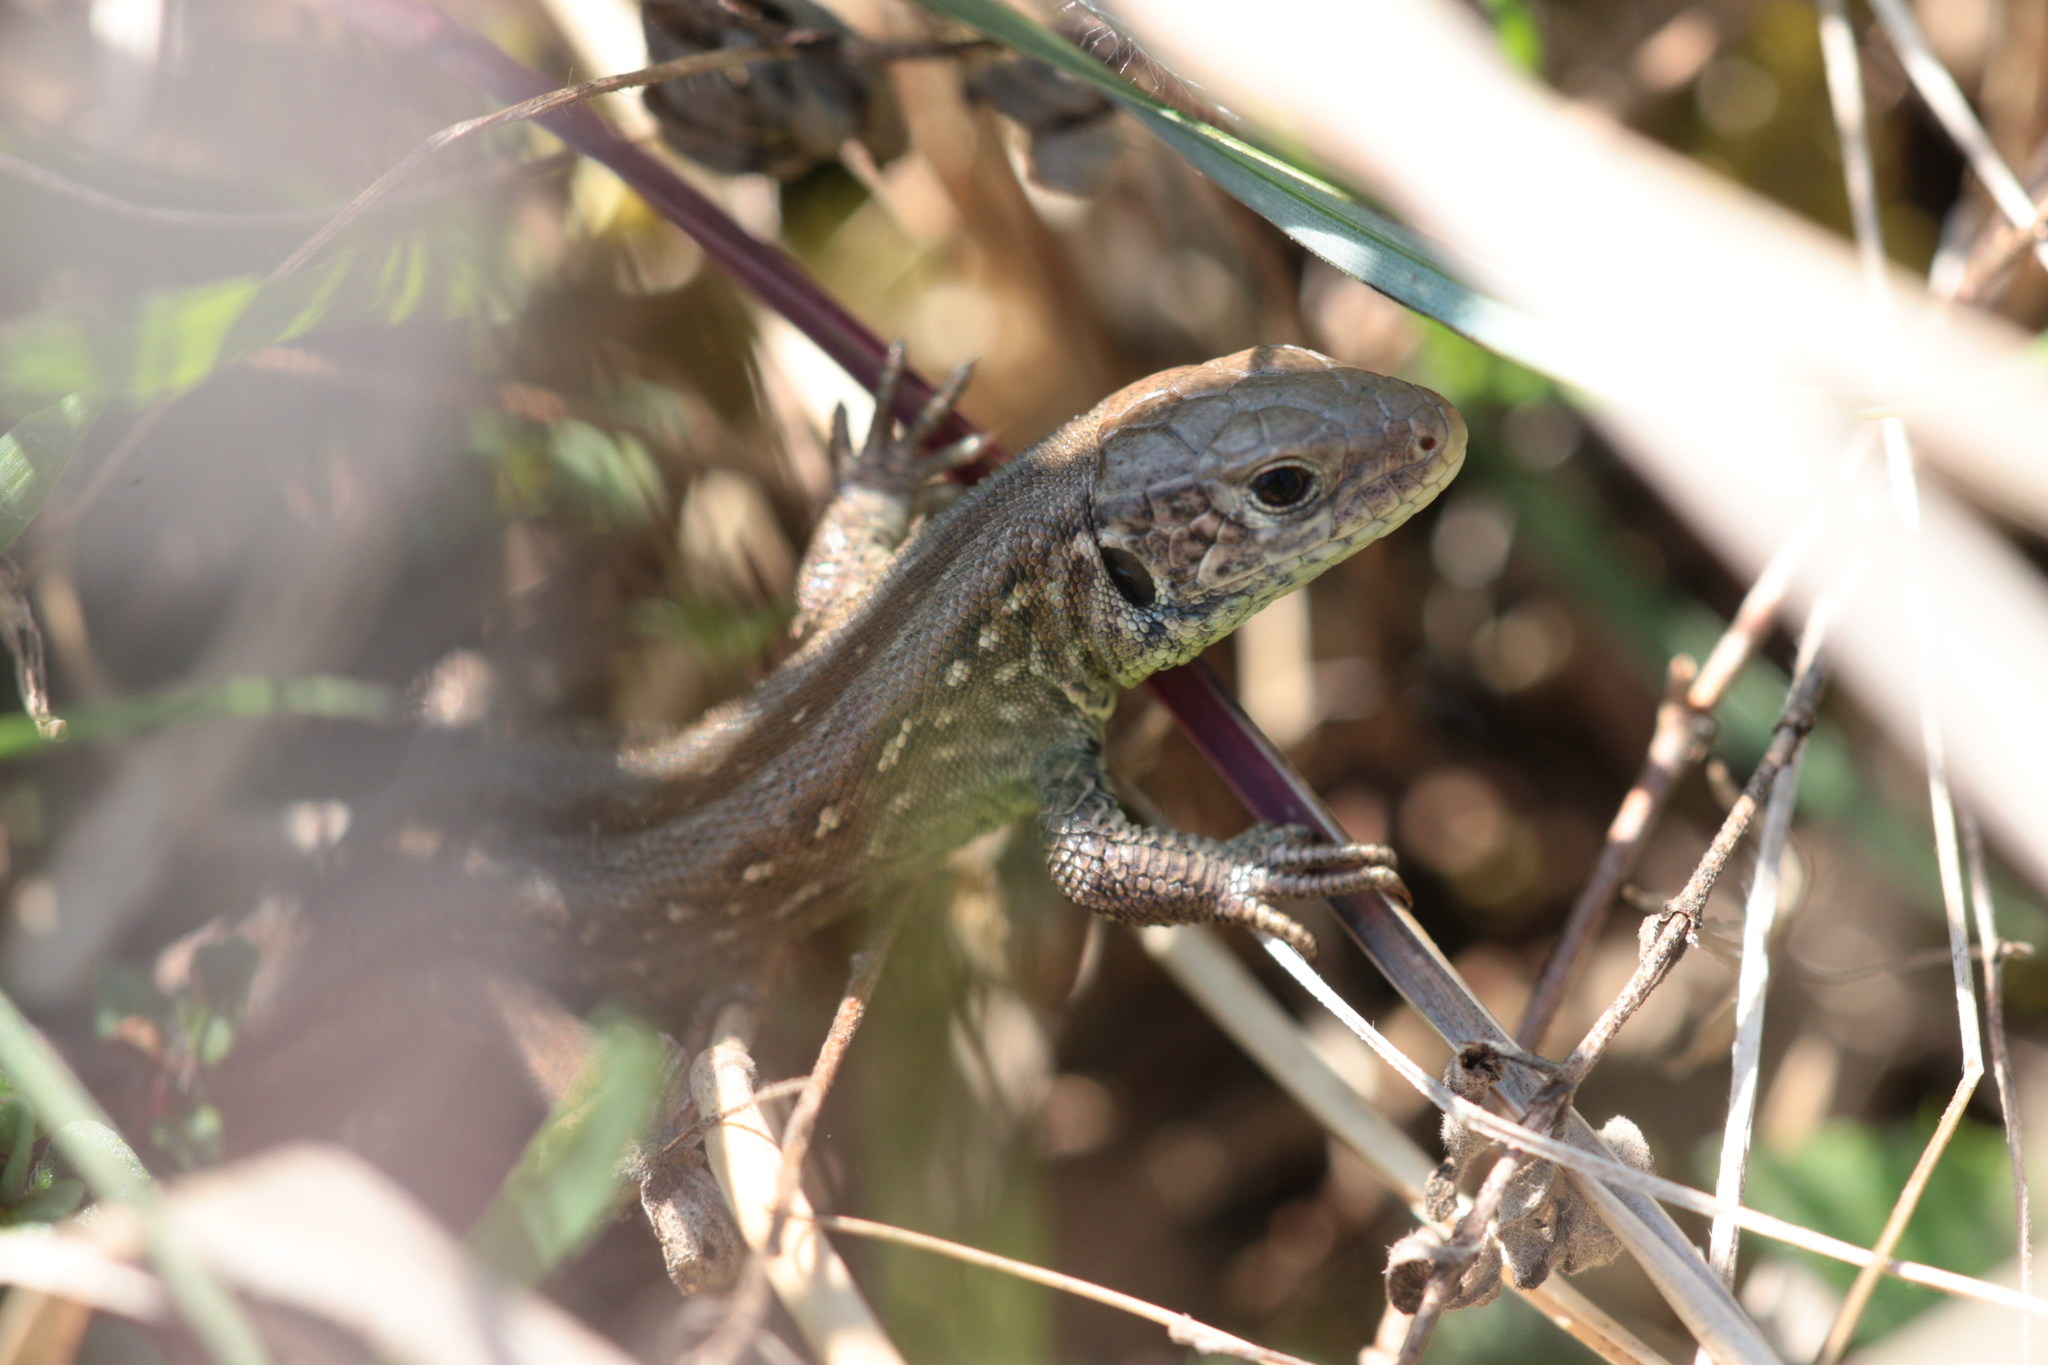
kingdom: Animalia
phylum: Chordata
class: Squamata
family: Lacertidae
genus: Lacerta
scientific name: Lacerta agilis
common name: Sand lizard
